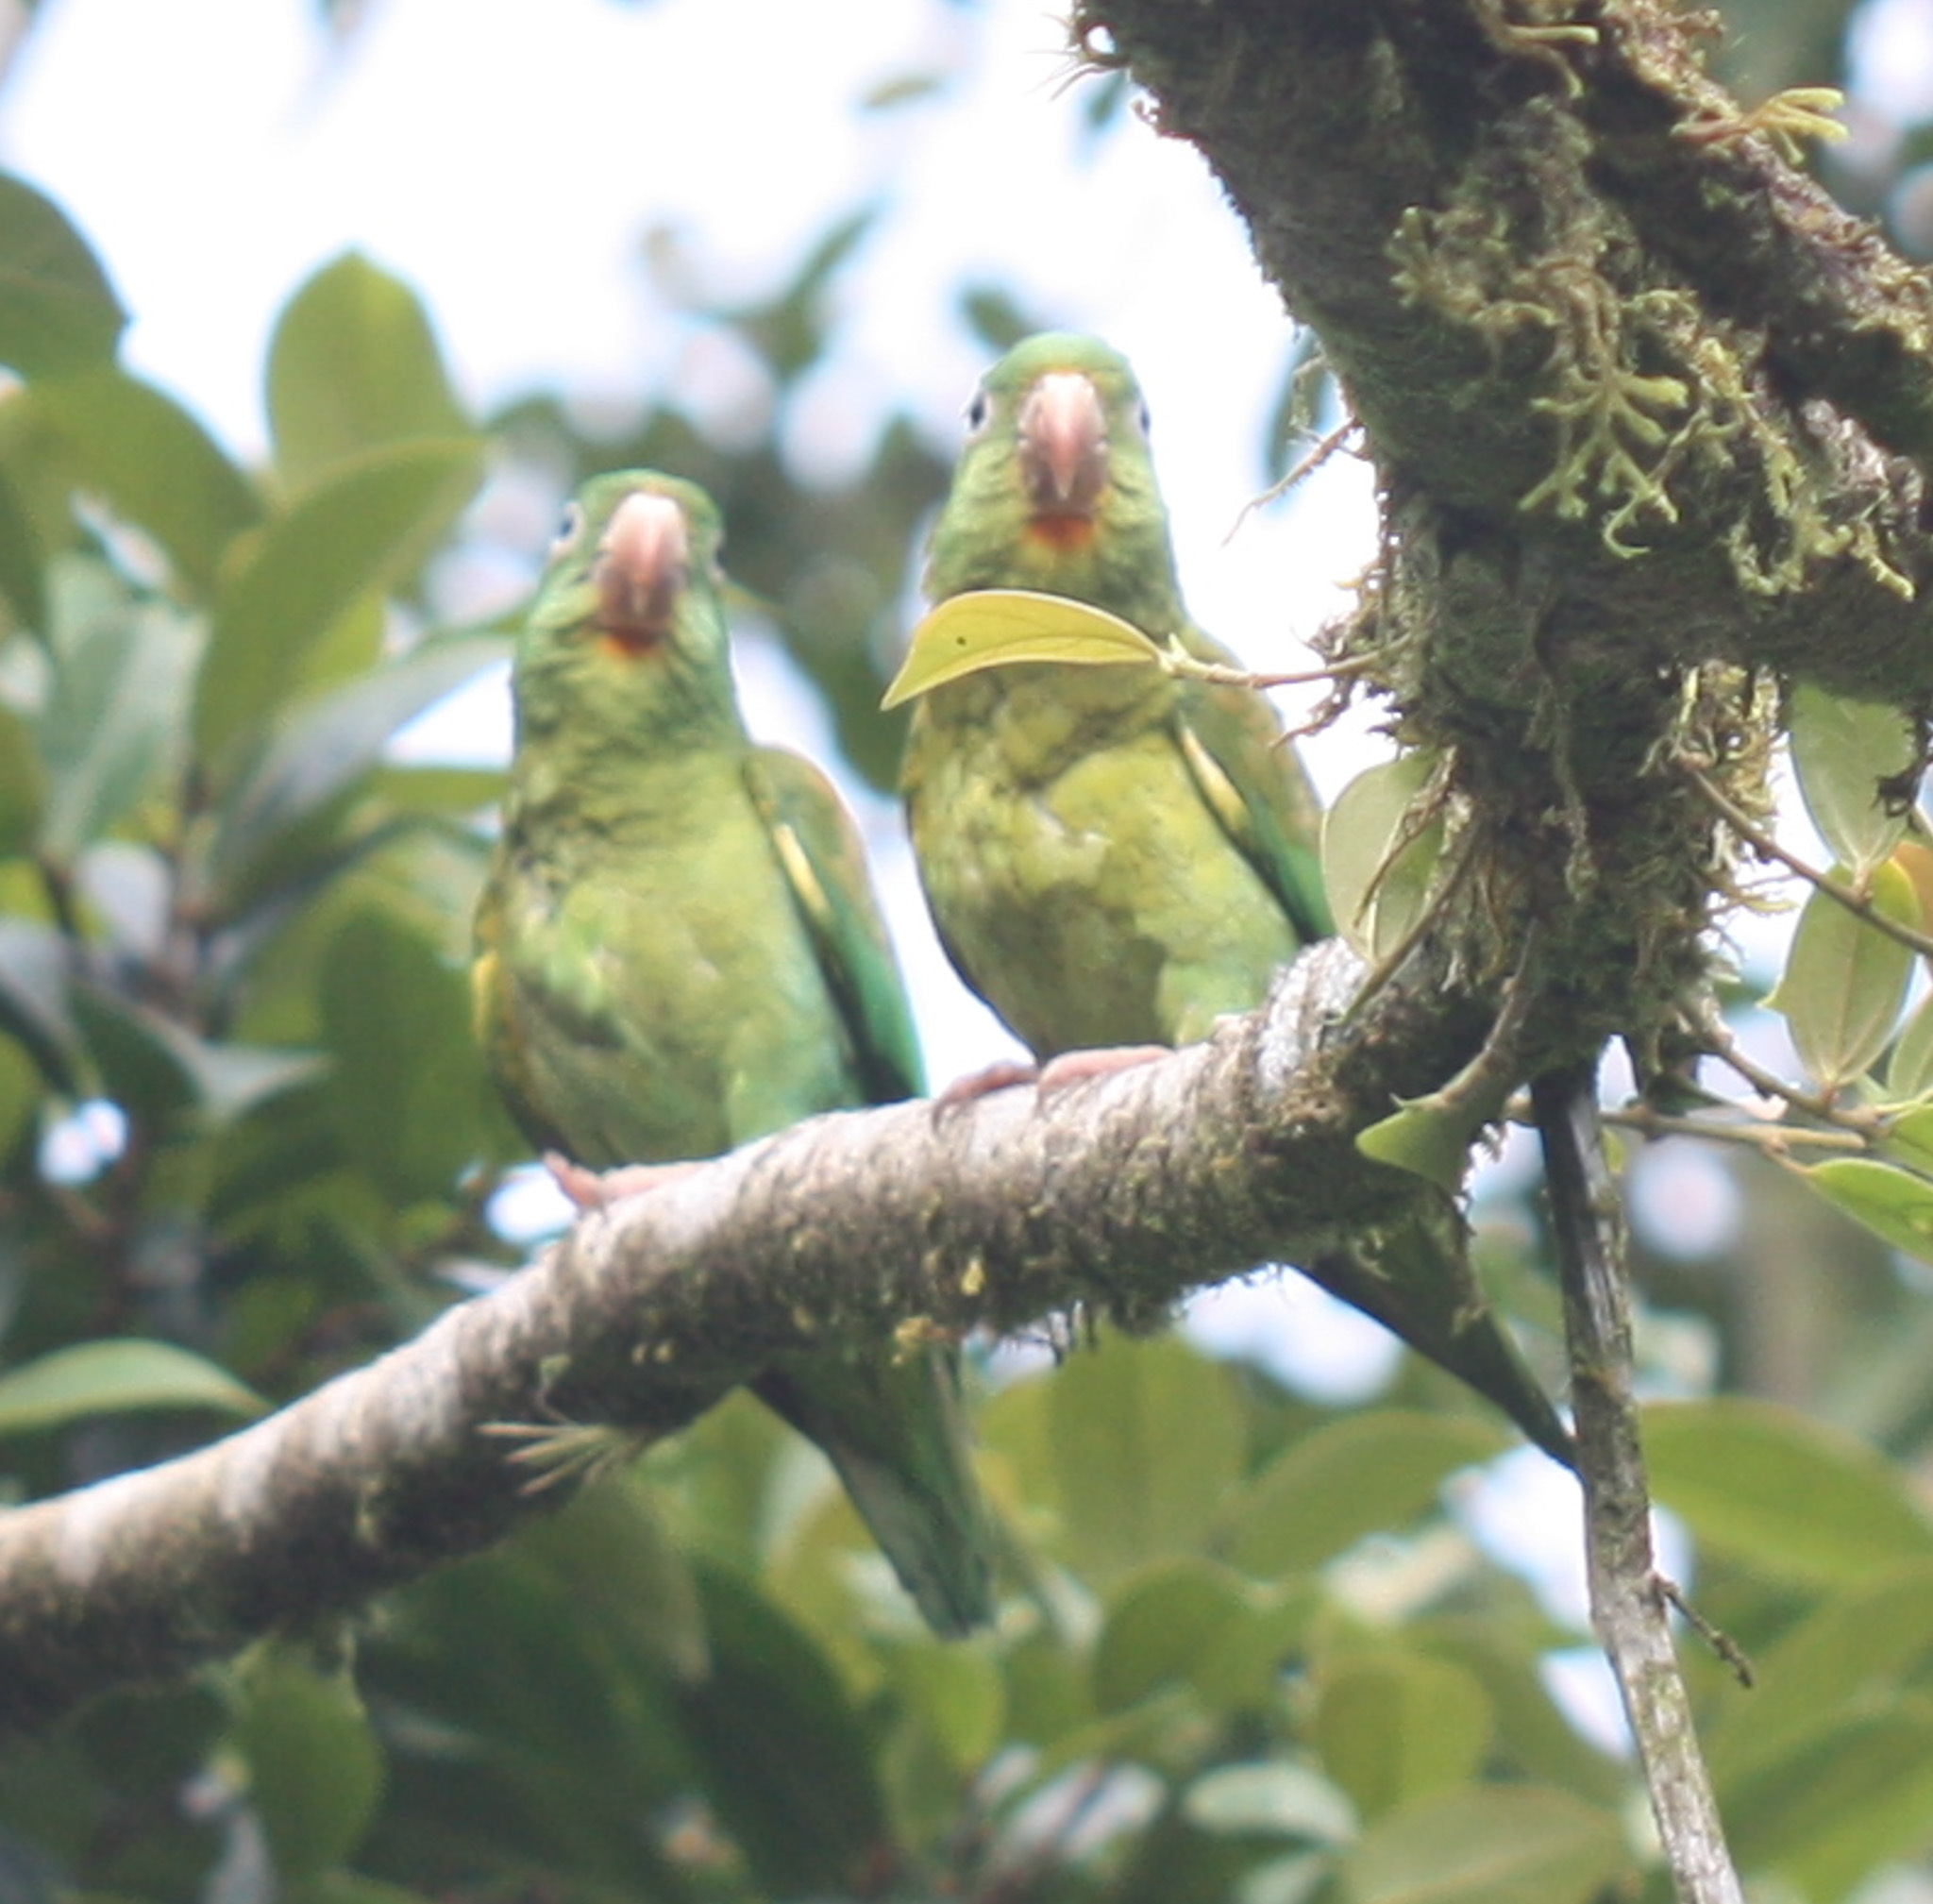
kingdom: Animalia
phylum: Chordata
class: Aves
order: Psittaciformes
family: Psittacidae
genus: Brotogeris
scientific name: Brotogeris jugularis
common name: Orange-chinned parakeet
